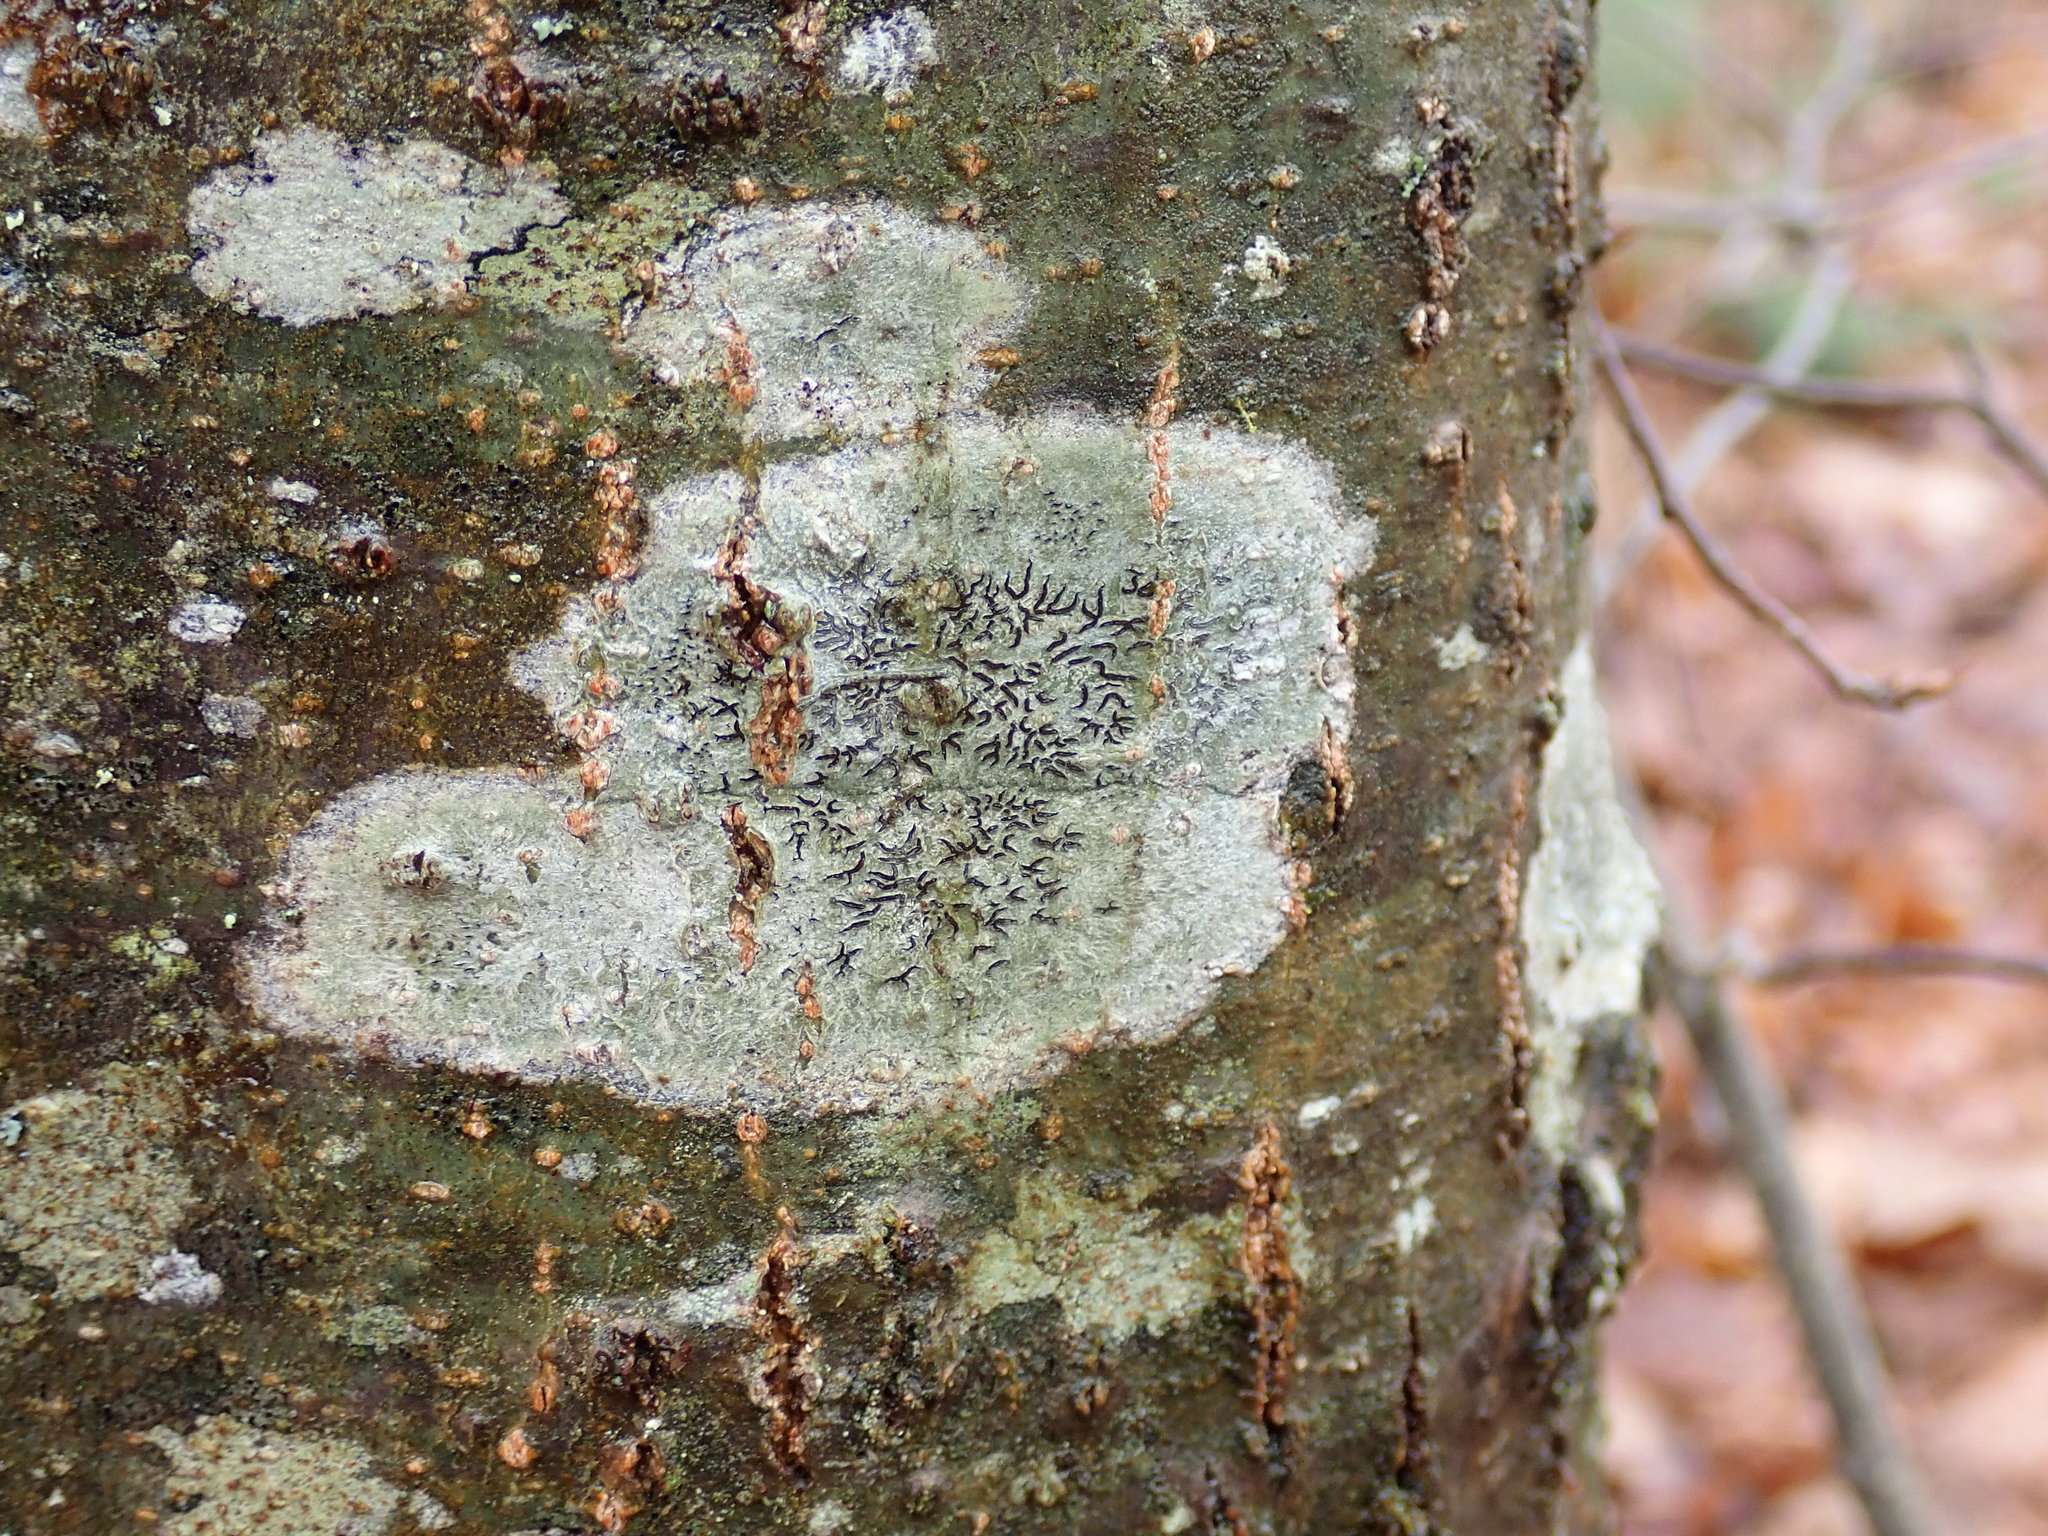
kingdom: Fungi
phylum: Ascomycota
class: Lecanoromycetes
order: Ostropales
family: Graphidaceae
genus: Graphis
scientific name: Graphis scripta
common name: Script lichen
